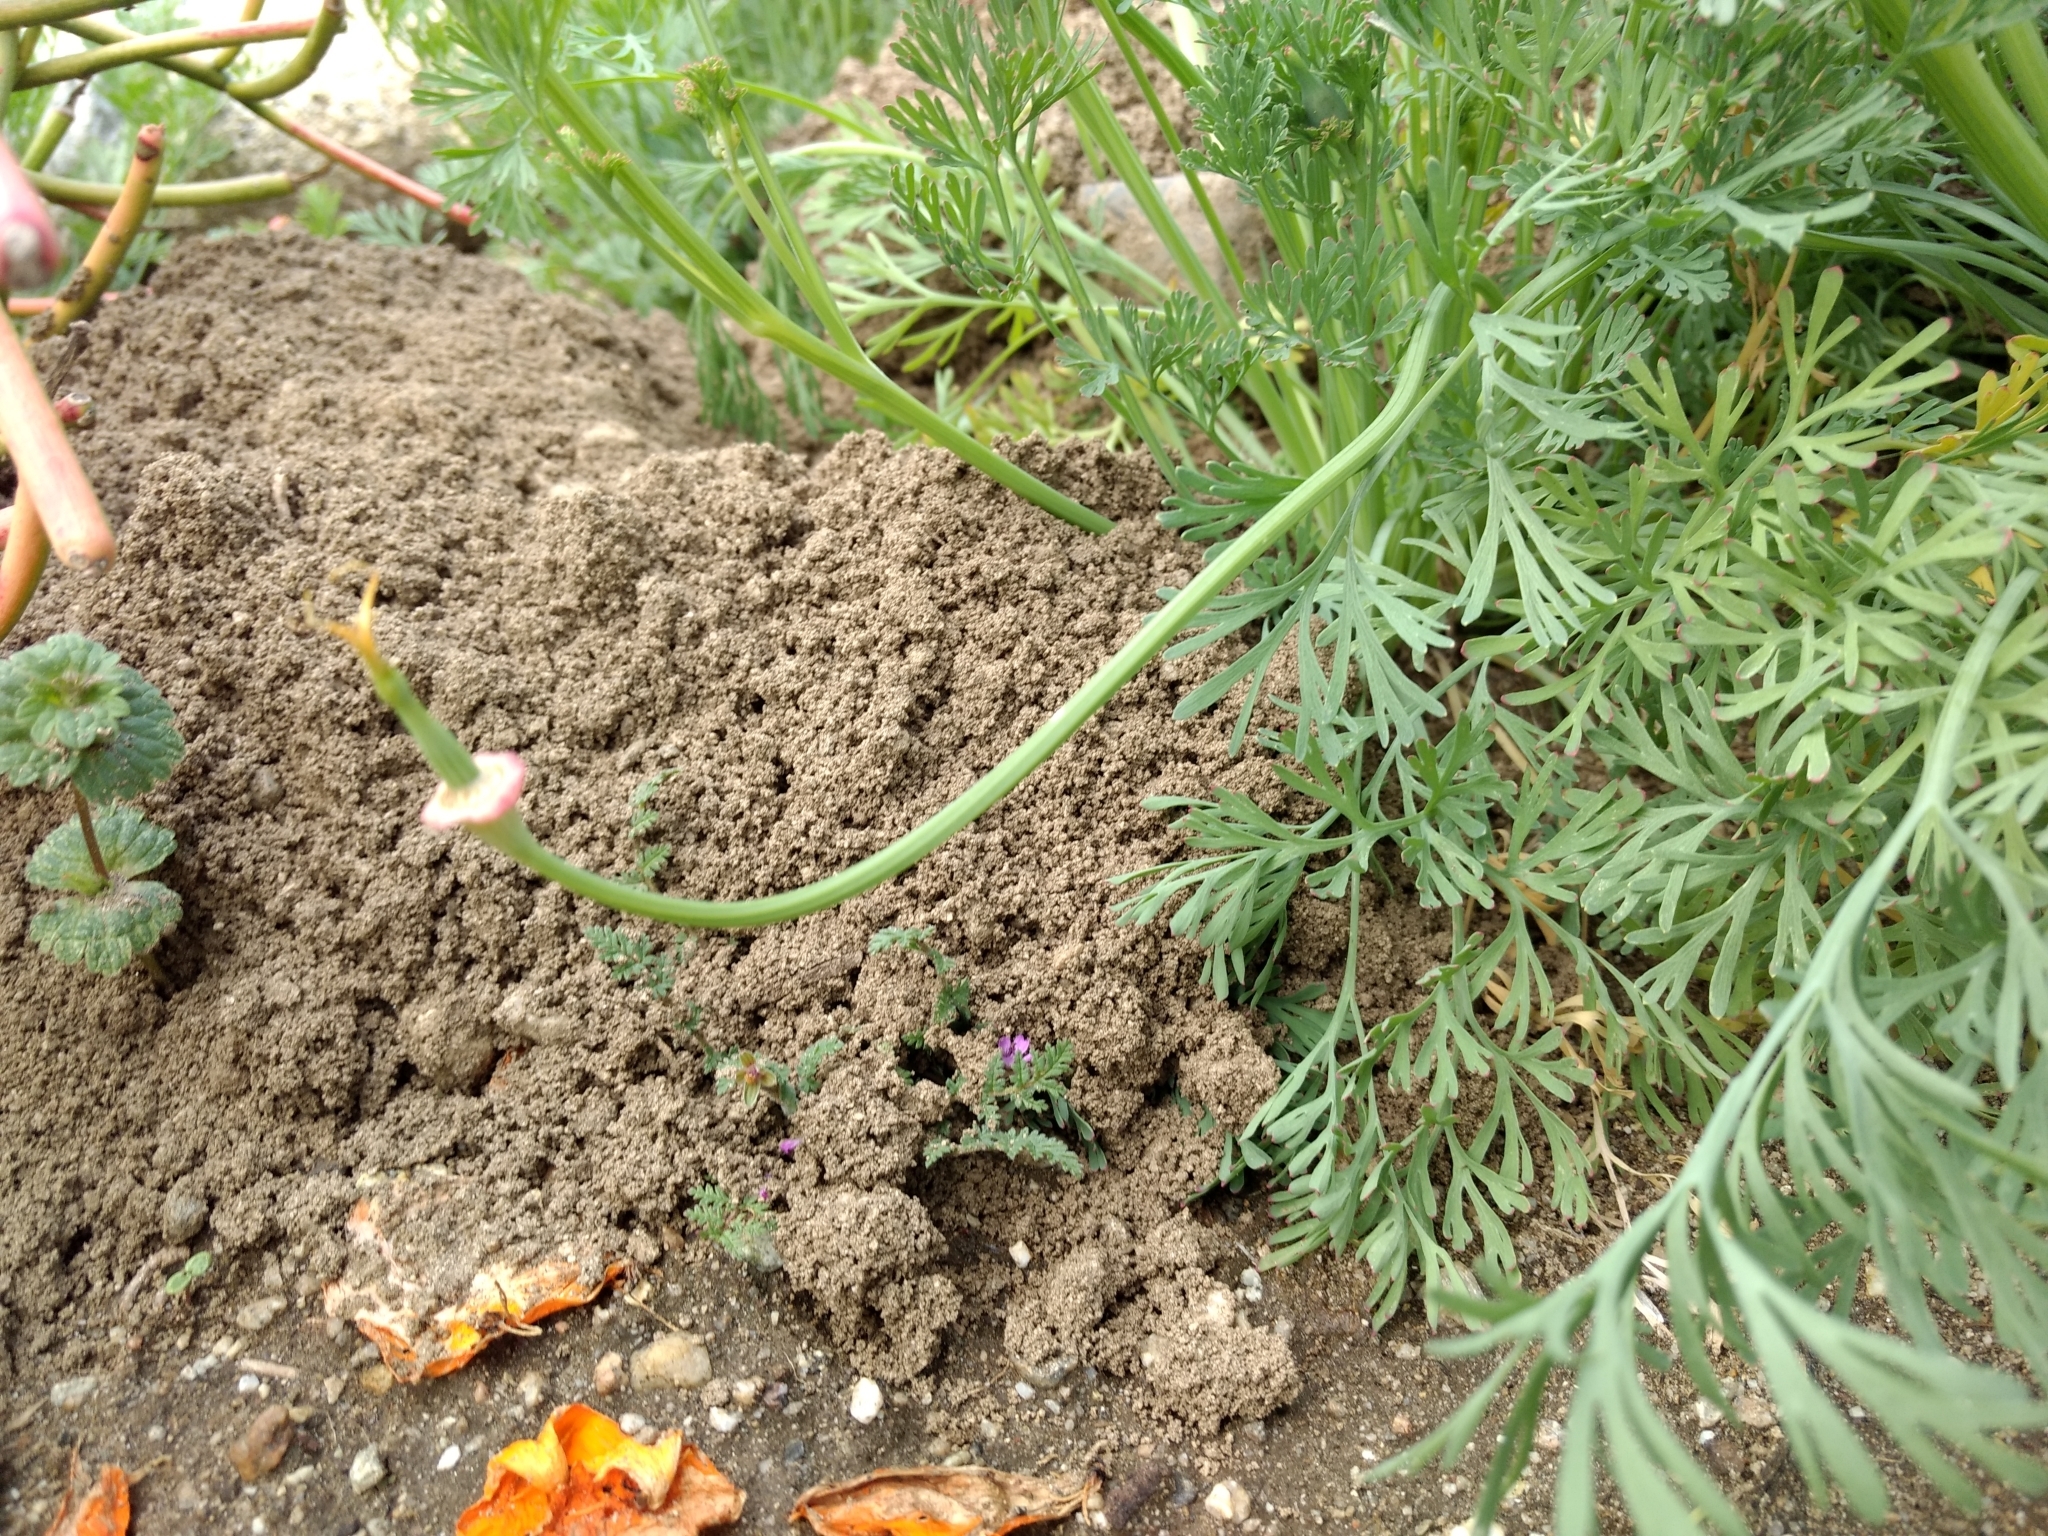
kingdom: Animalia
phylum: Chordata
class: Mammalia
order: Rodentia
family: Geomyidae
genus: Thomomys
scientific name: Thomomys bottae
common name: Botta's pocket gopher
